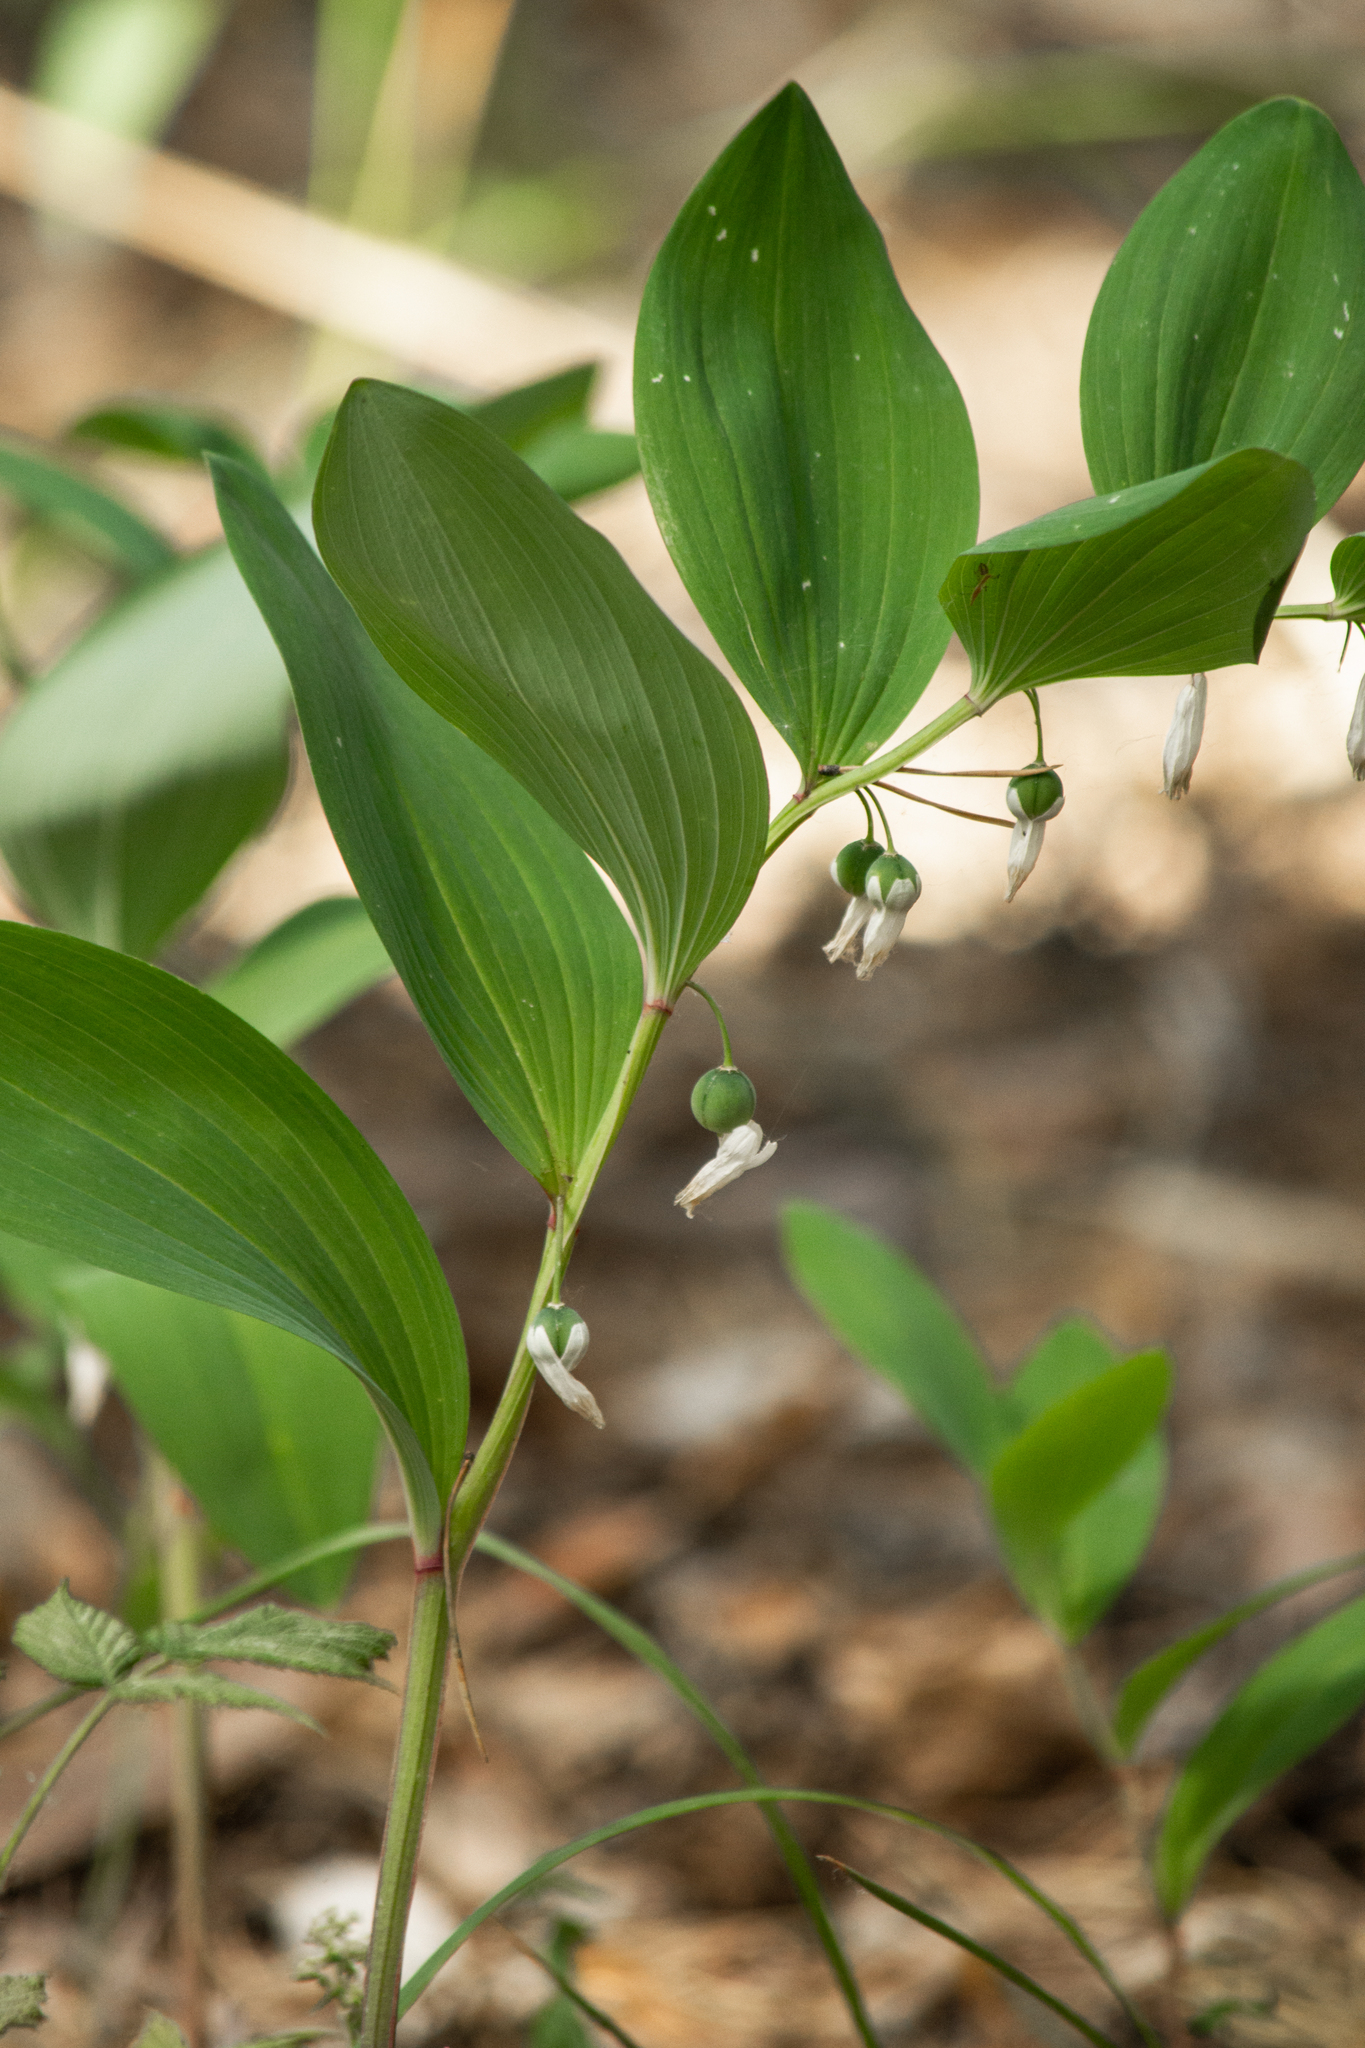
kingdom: Plantae
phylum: Tracheophyta
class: Liliopsida
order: Asparagales
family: Asparagaceae
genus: Polygonatum
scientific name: Polygonatum odoratum
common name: Angular solomon's-seal
